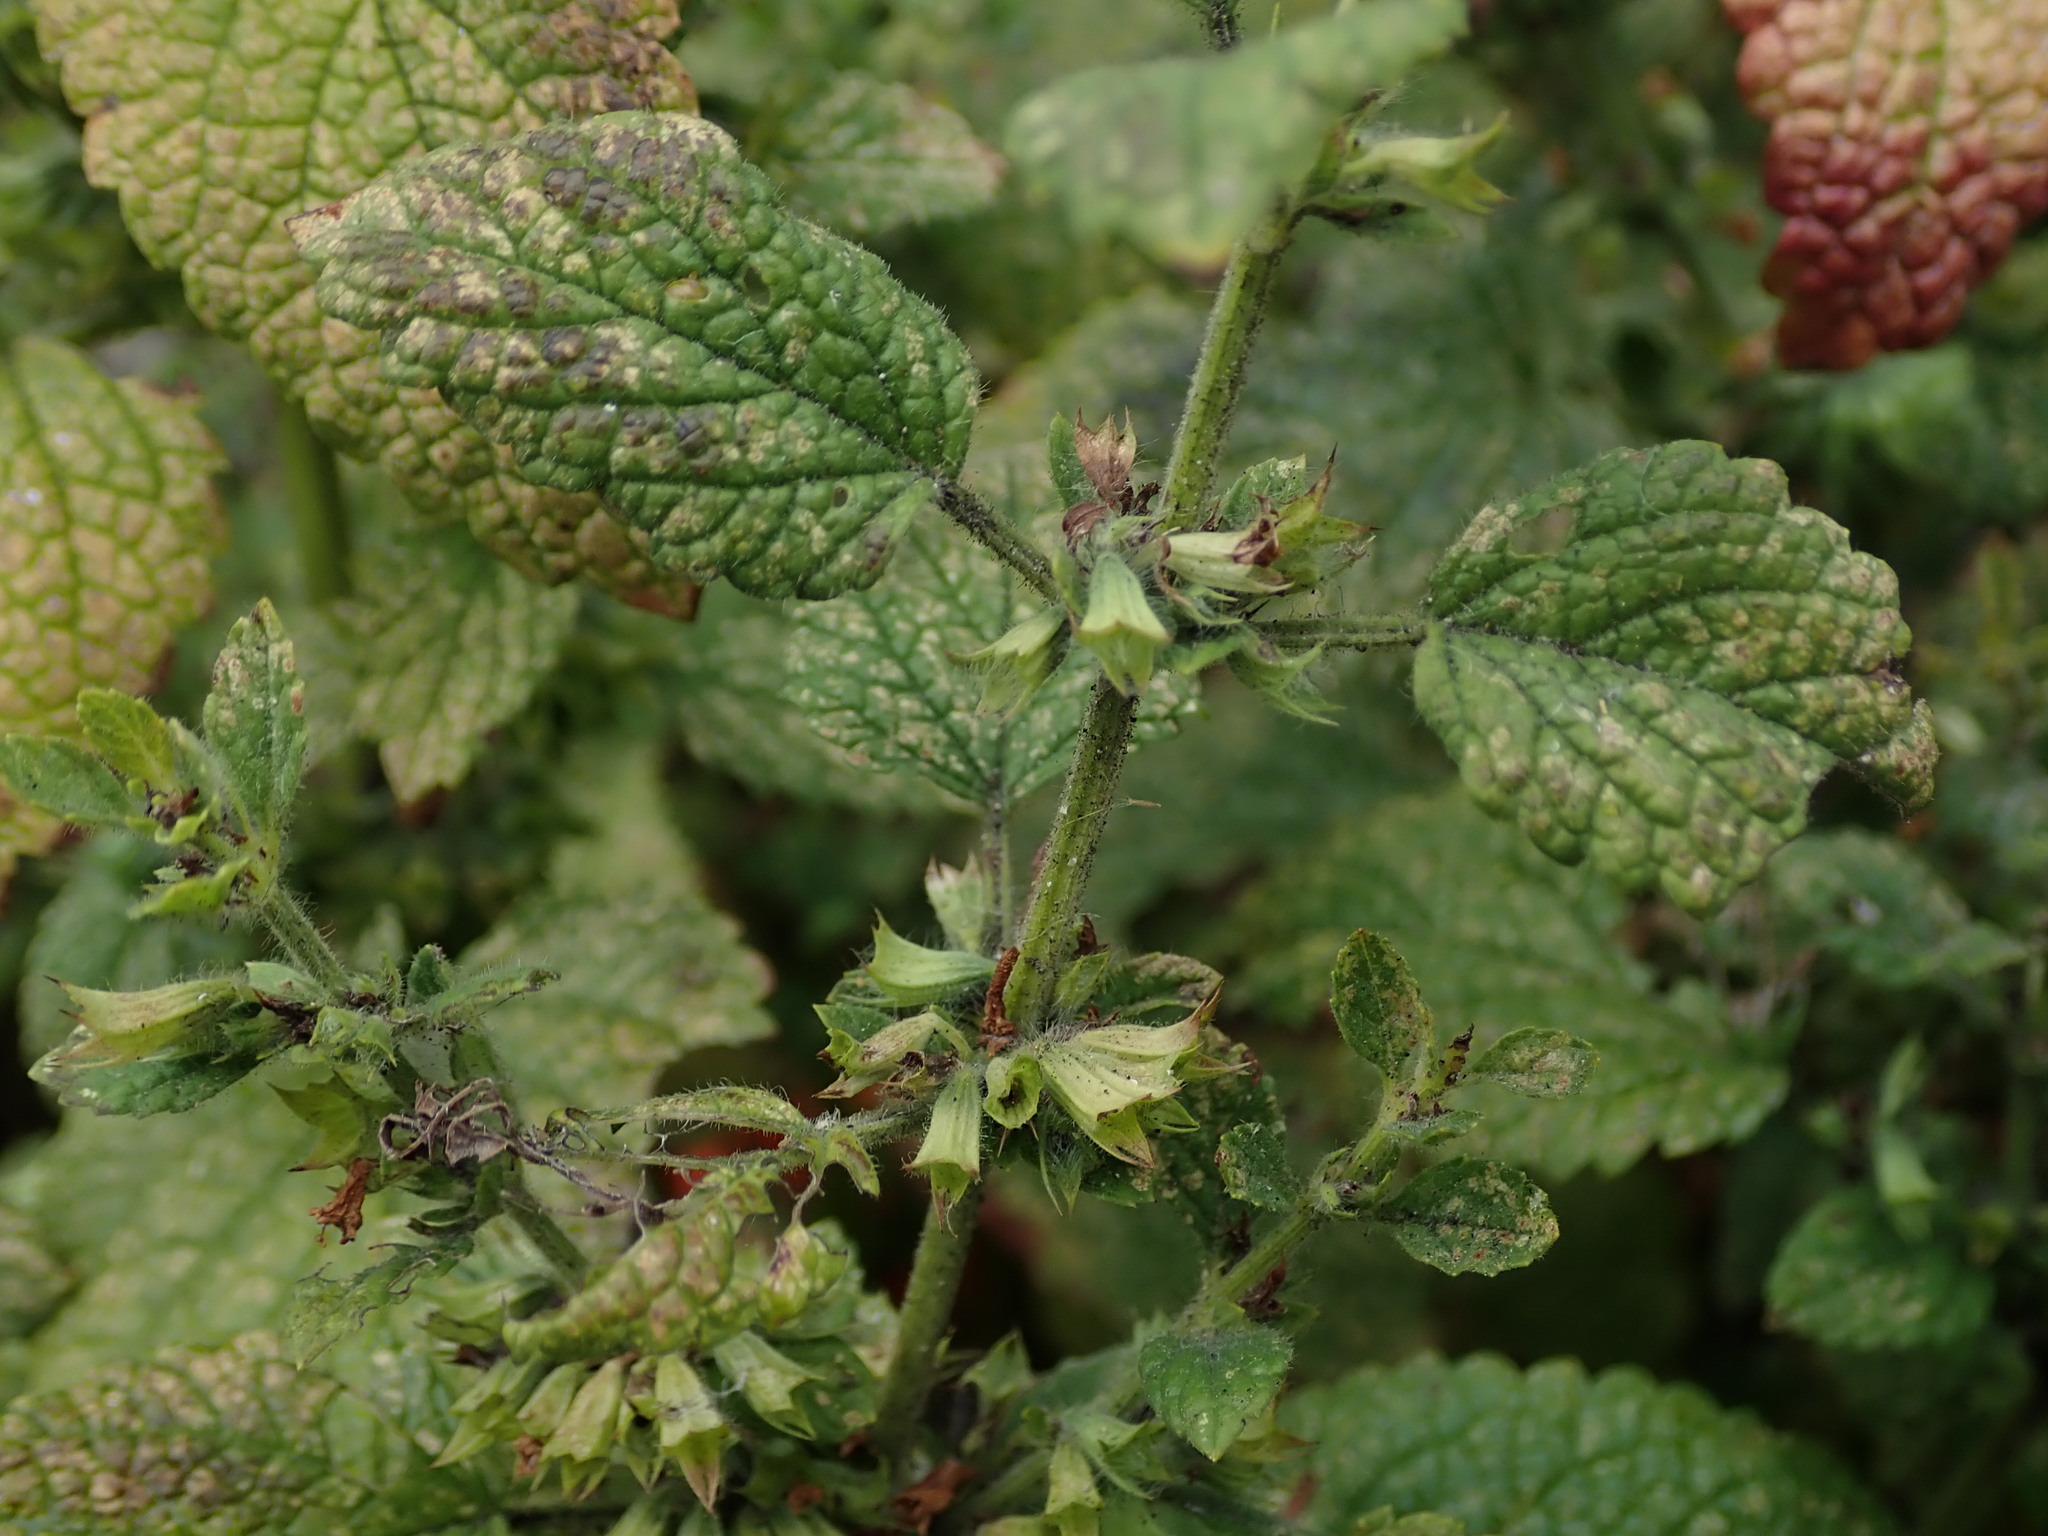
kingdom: Plantae
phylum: Tracheophyta
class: Magnoliopsida
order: Lamiales
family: Lamiaceae
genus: Melissa
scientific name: Melissa officinalis
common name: Balm
